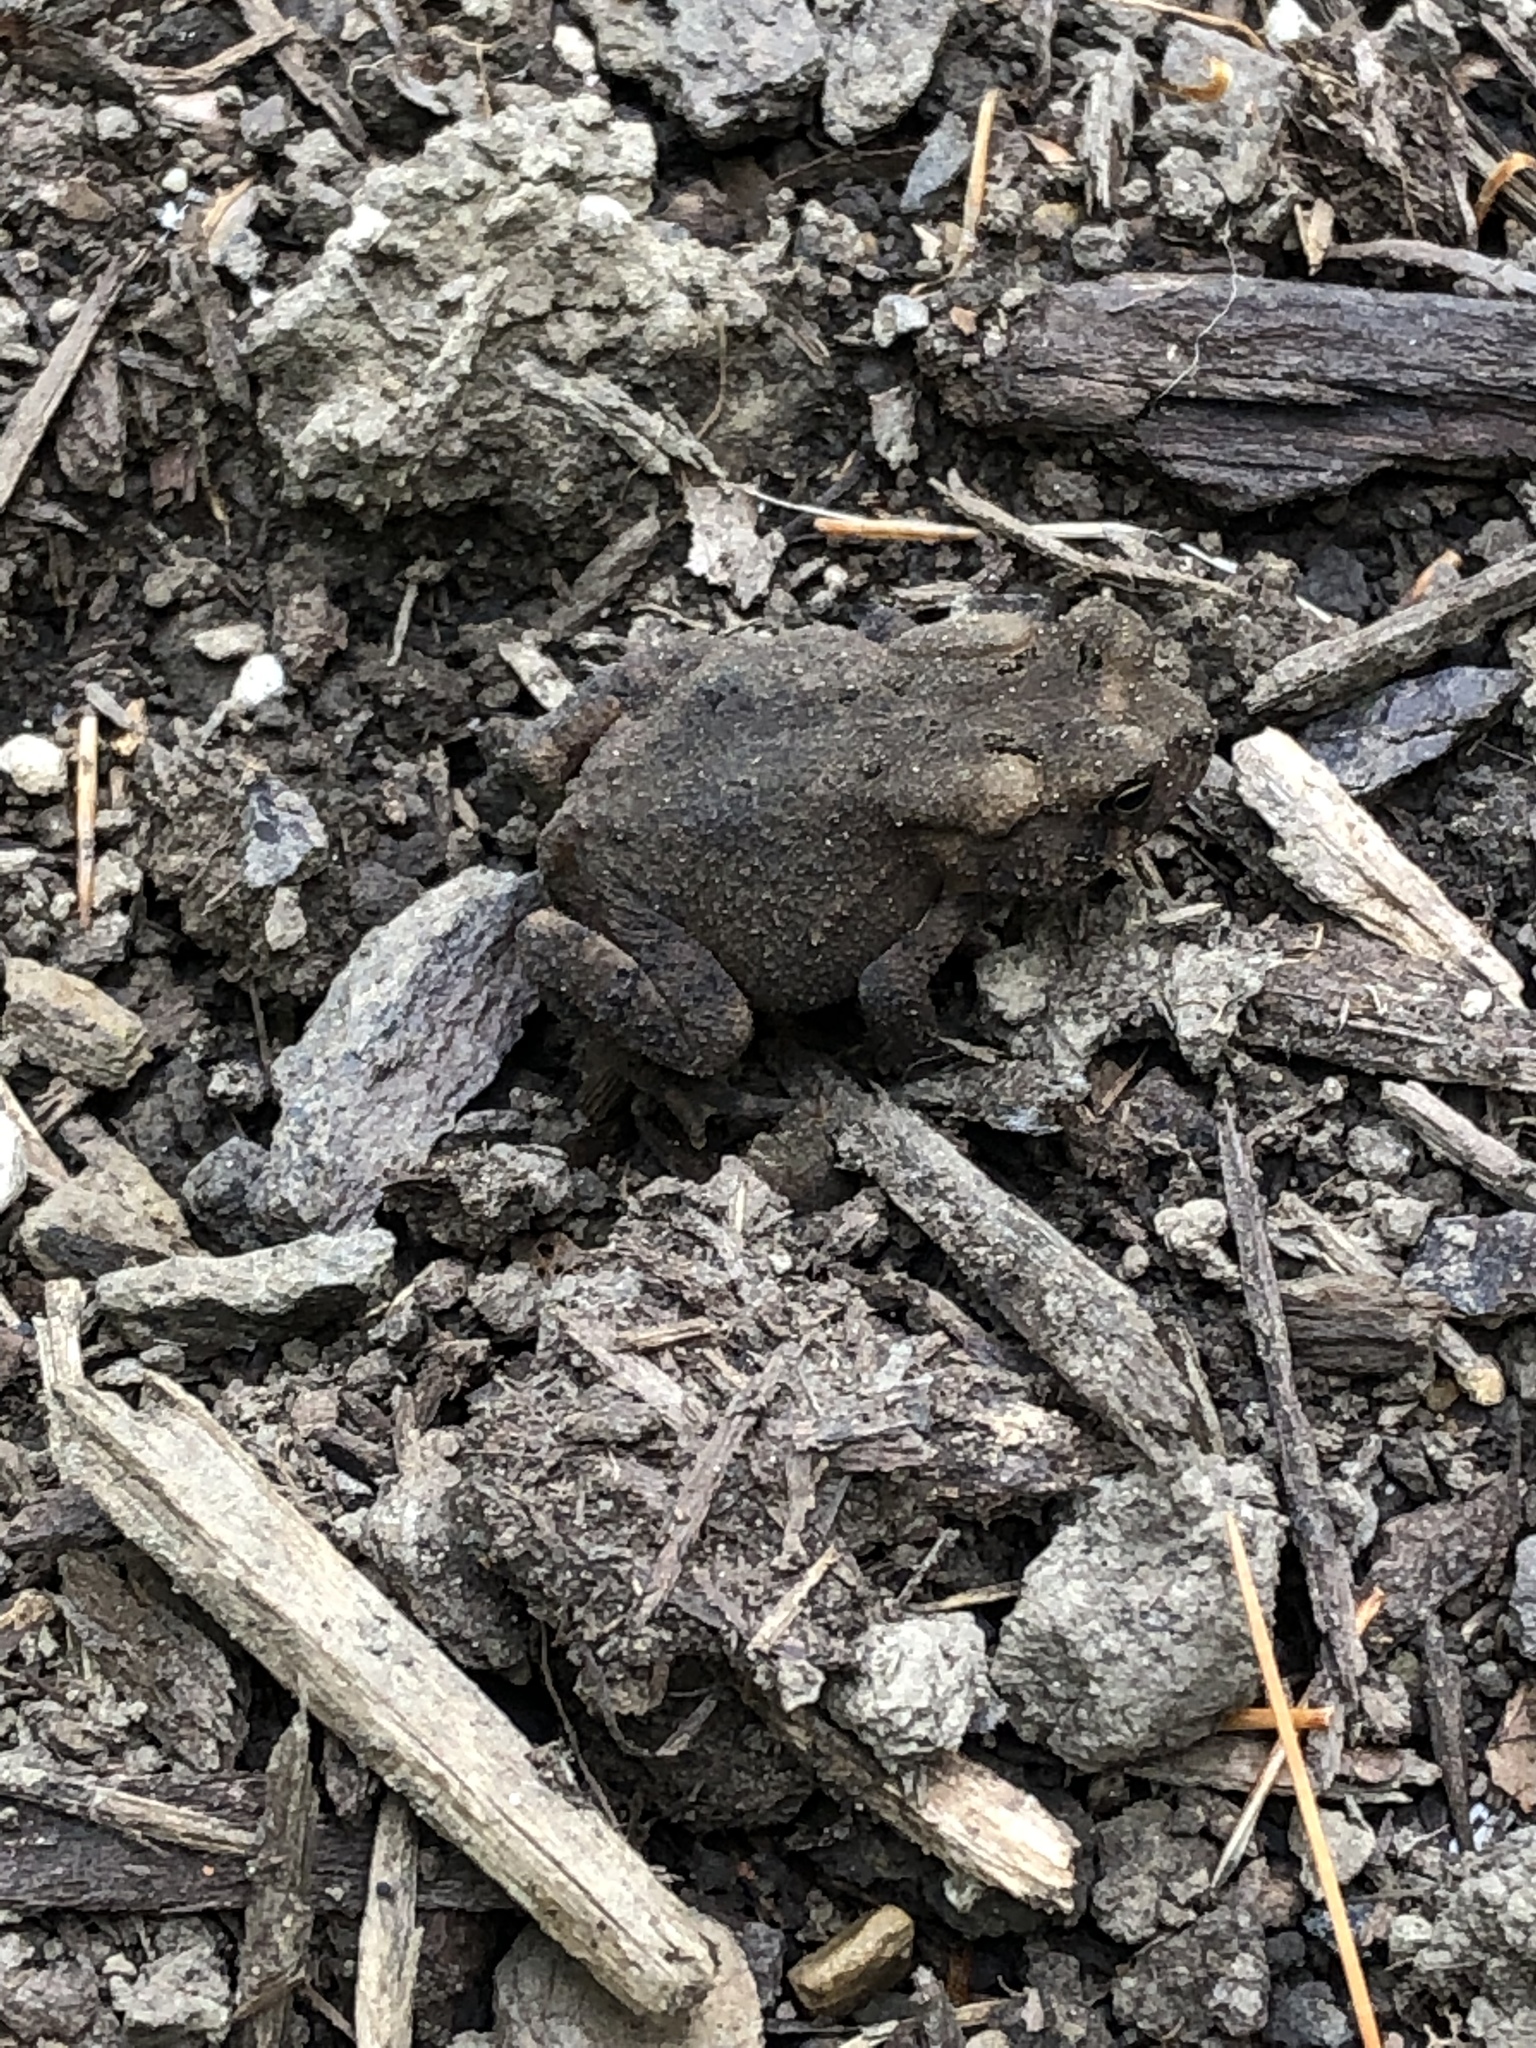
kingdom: Animalia
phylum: Chordata
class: Amphibia
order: Anura
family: Bufonidae
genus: Anaxyrus
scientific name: Anaxyrus americanus
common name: American toad
